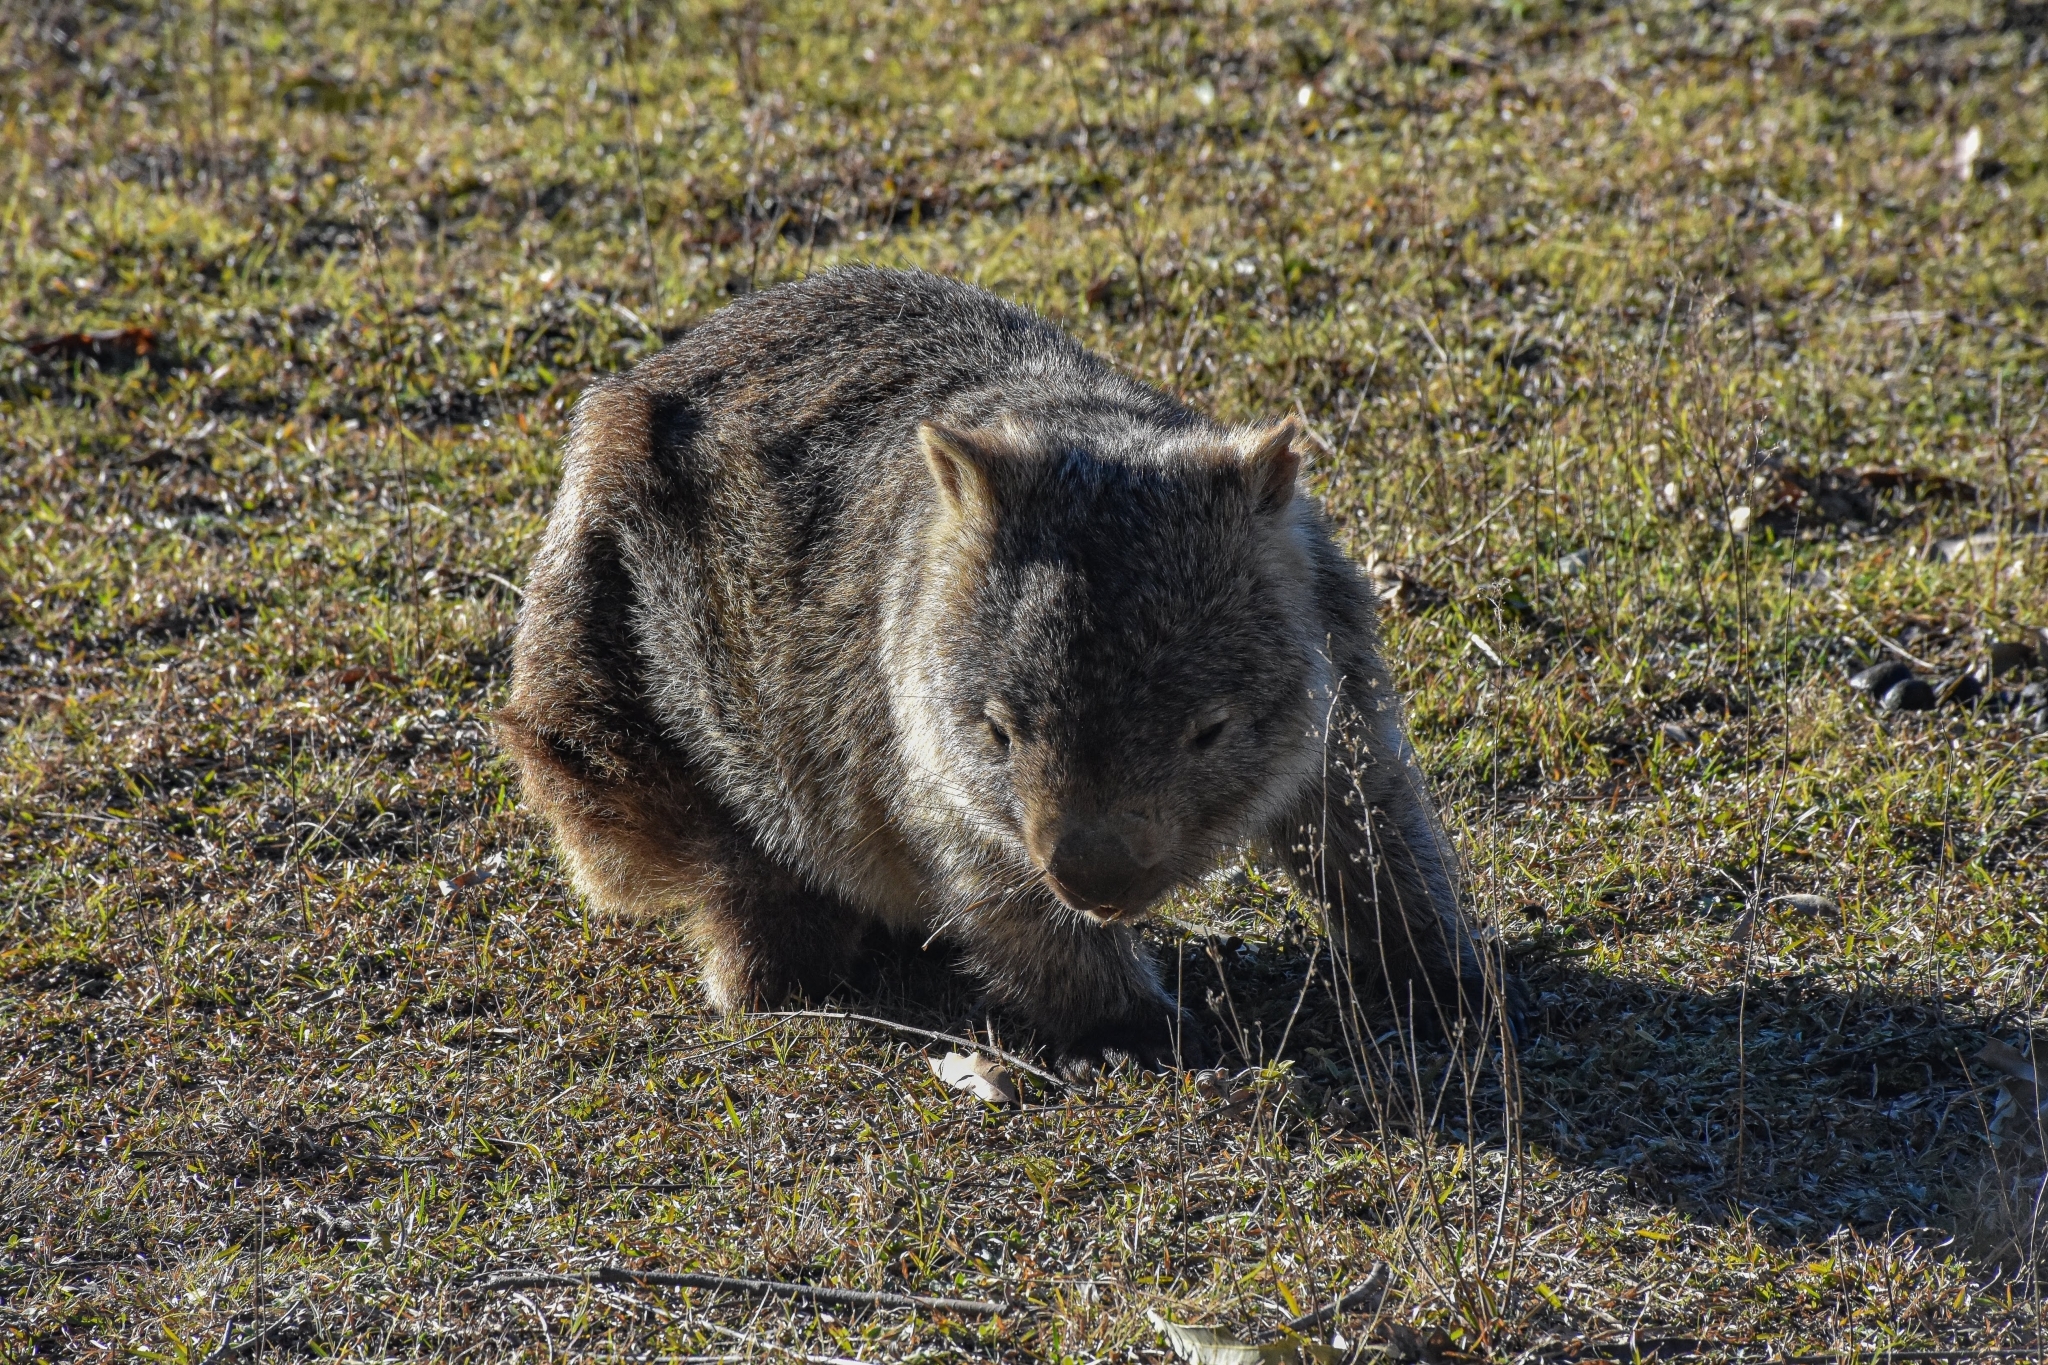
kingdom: Animalia
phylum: Chordata
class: Mammalia
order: Diprotodontia
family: Vombatidae
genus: Vombatus
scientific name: Vombatus ursinus
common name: Common wombat
